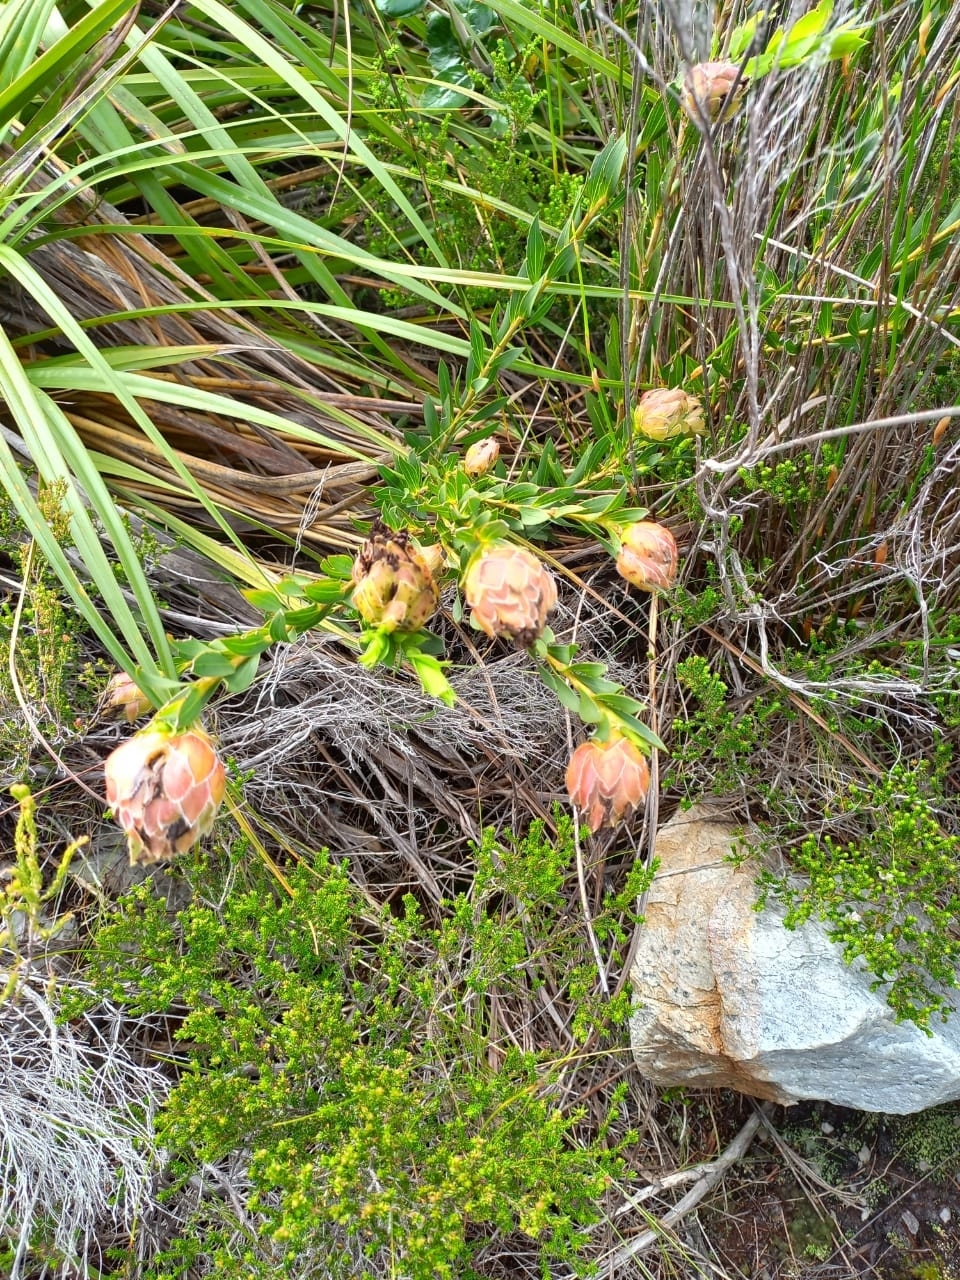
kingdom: Plantae
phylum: Tracheophyta
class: Magnoliopsida
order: Fabales
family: Fabaceae
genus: Liparia
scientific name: Liparia splendens
